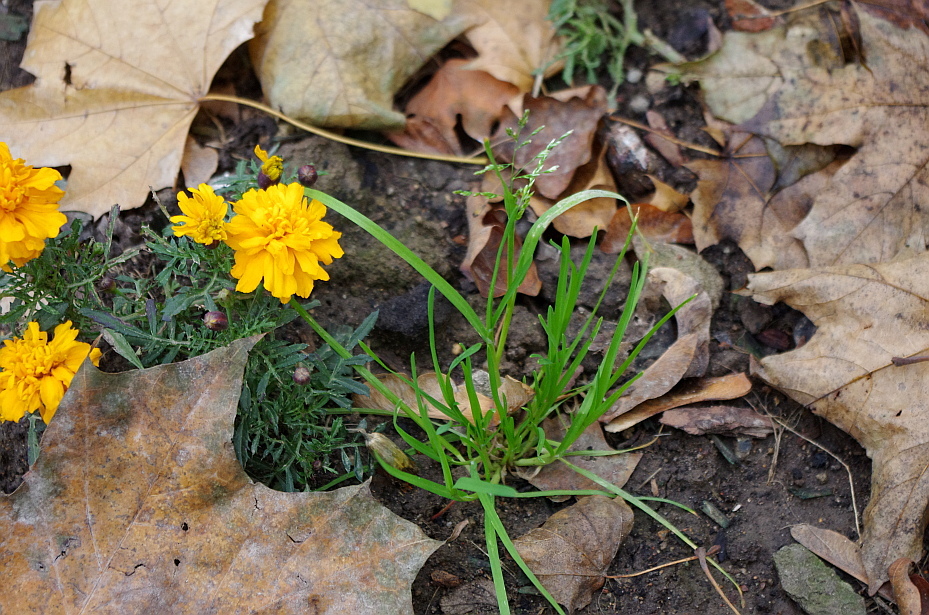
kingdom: Plantae
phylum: Tracheophyta
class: Liliopsida
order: Poales
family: Poaceae
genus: Poa
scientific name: Poa annua
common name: Annual bluegrass
